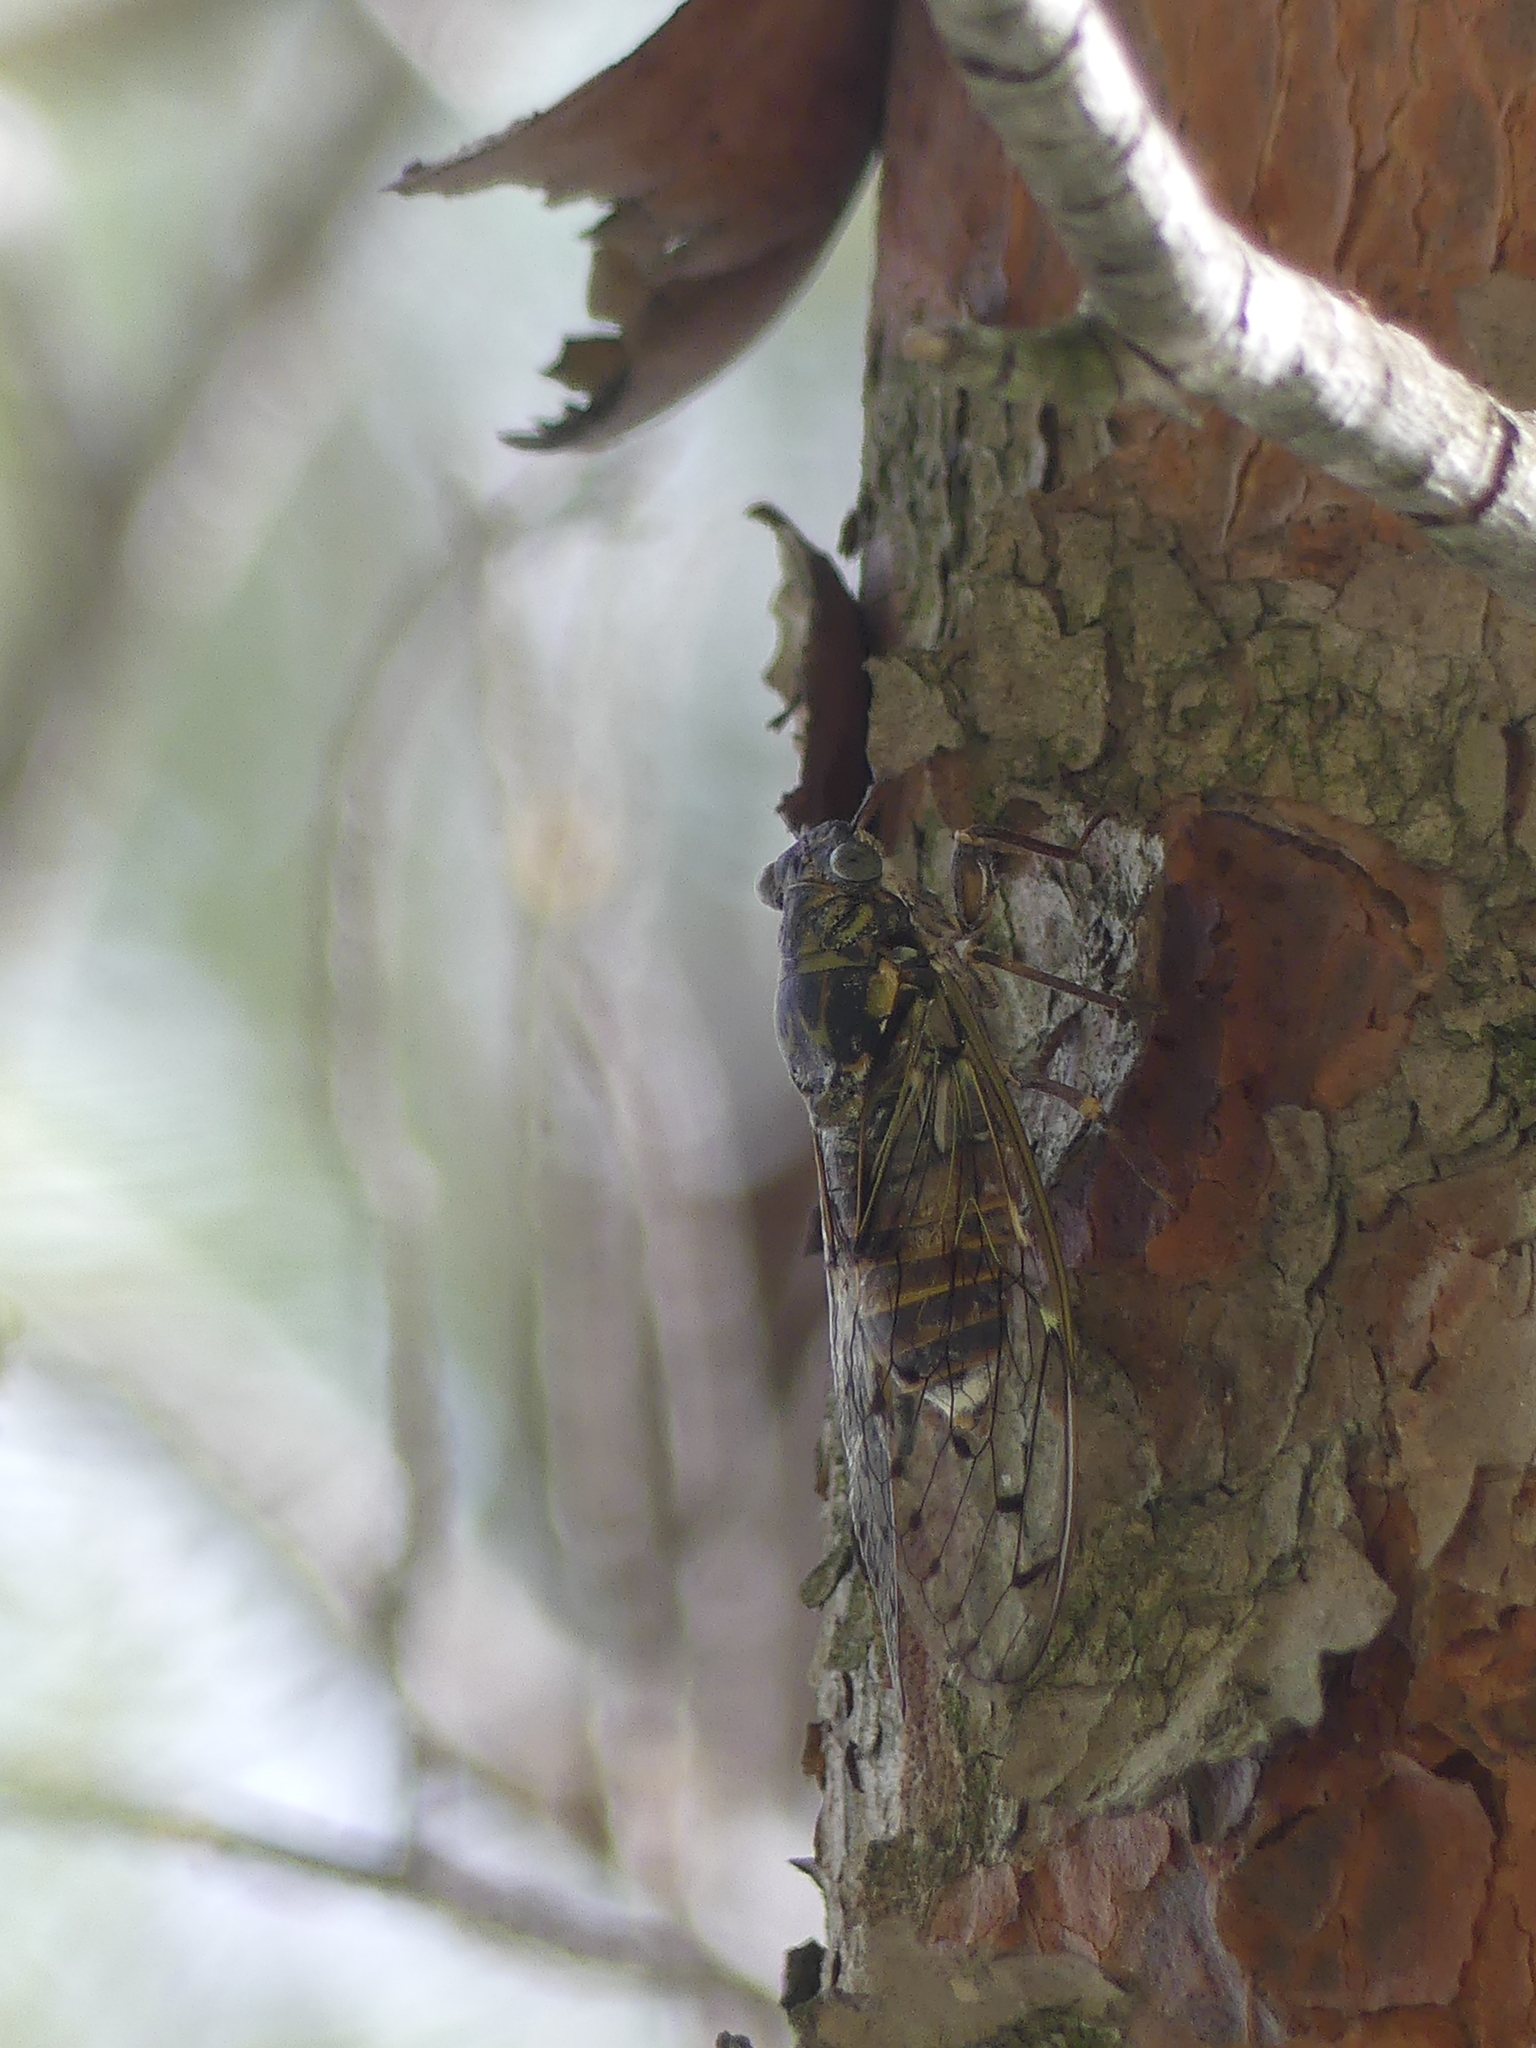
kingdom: Animalia
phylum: Arthropoda
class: Insecta
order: Hemiptera
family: Cicadidae
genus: Cicada
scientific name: Cicada orni
